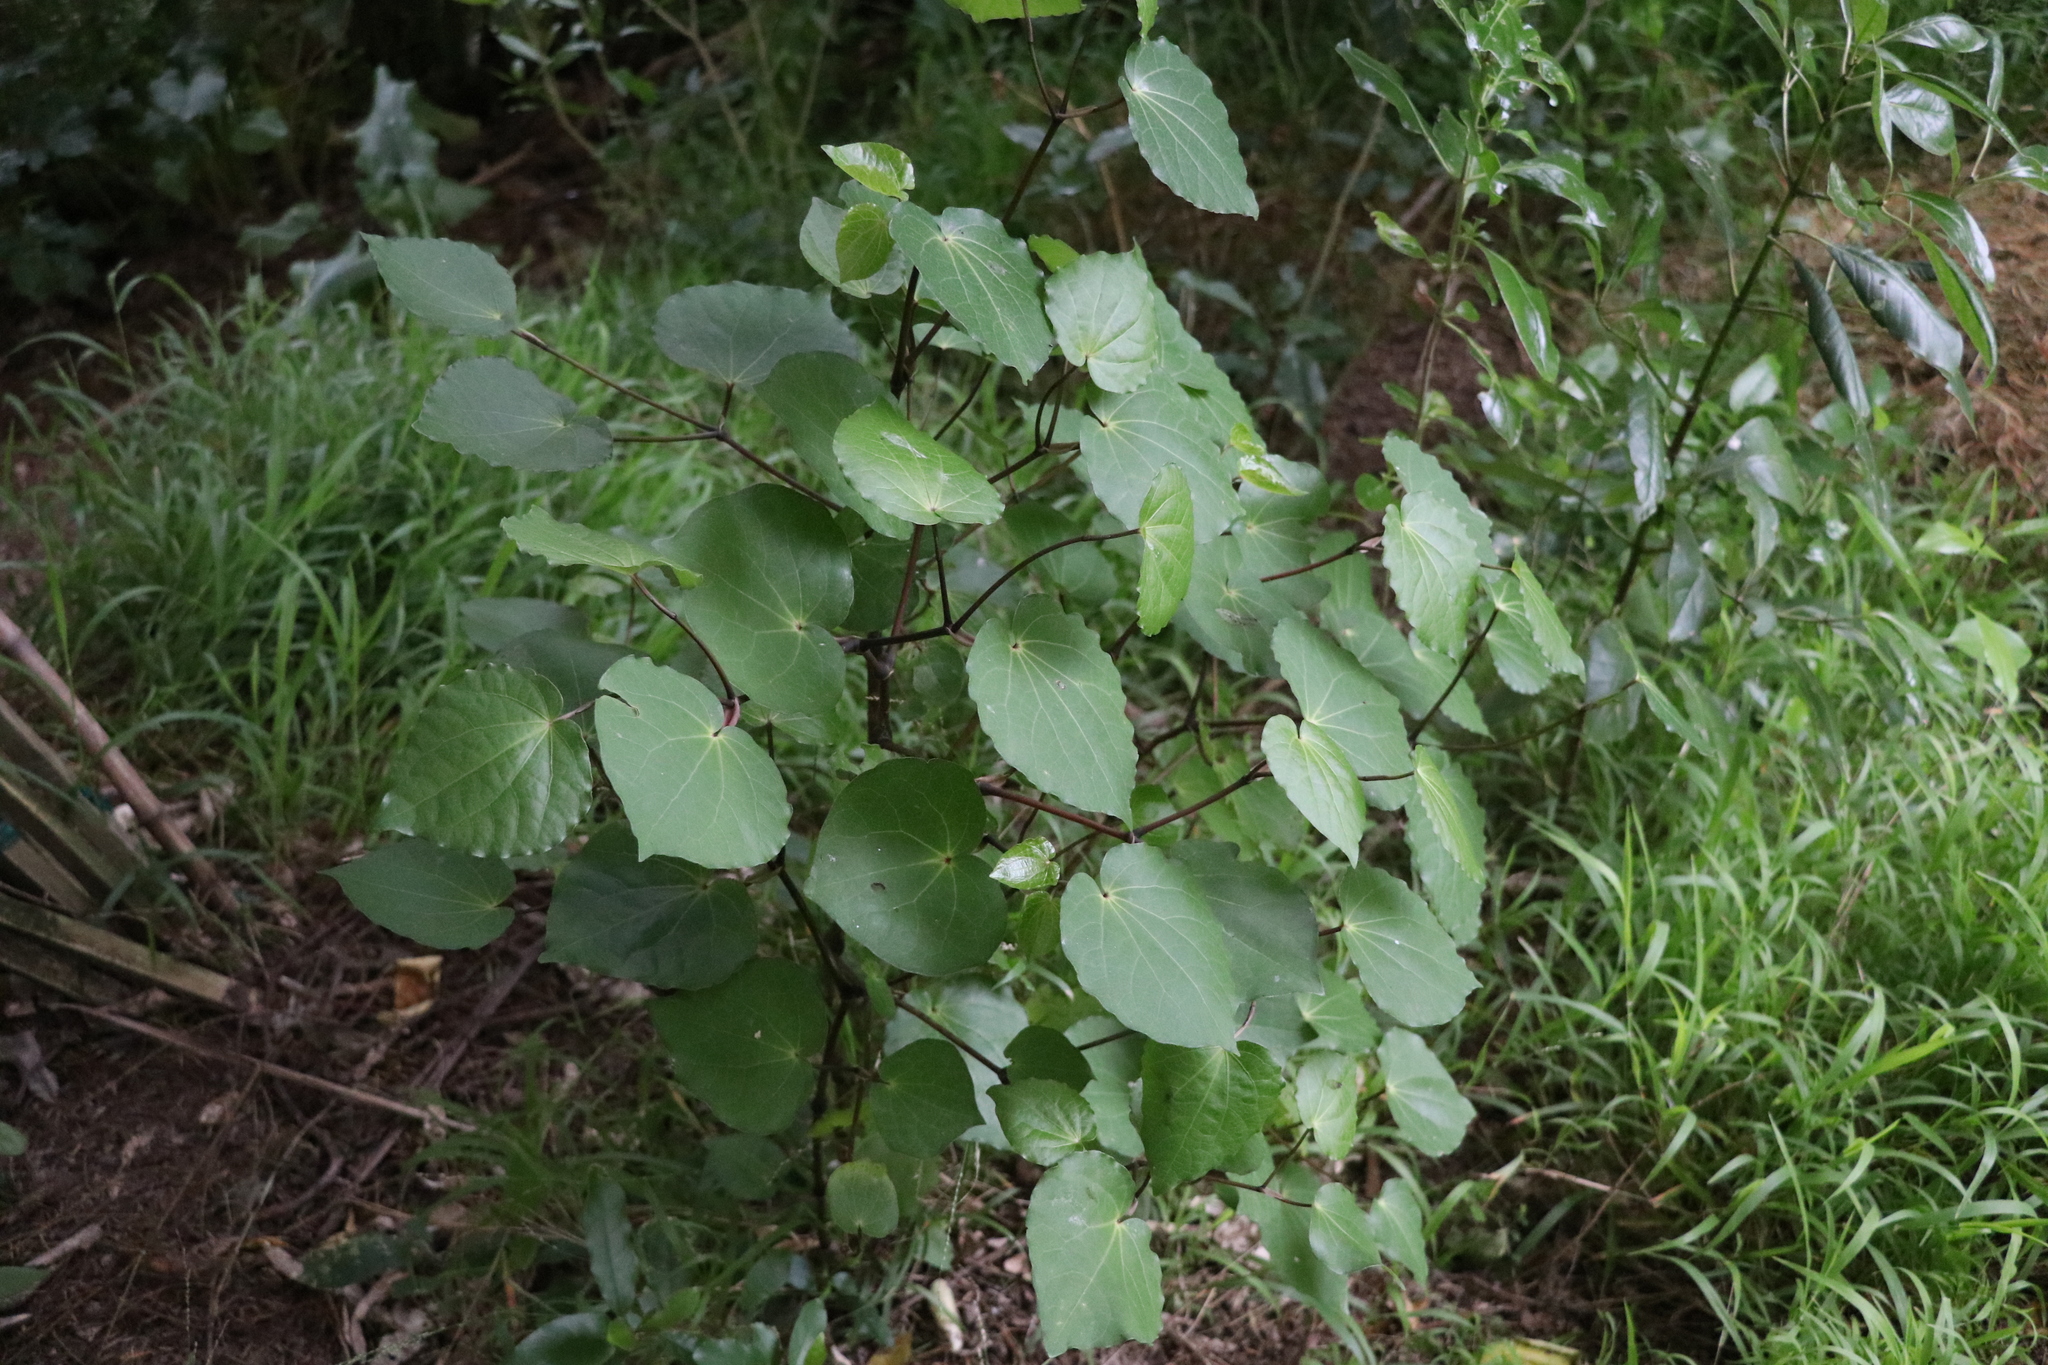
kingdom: Plantae
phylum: Tracheophyta
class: Magnoliopsida
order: Piperales
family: Piperaceae
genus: Macropiper
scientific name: Macropiper excelsum
